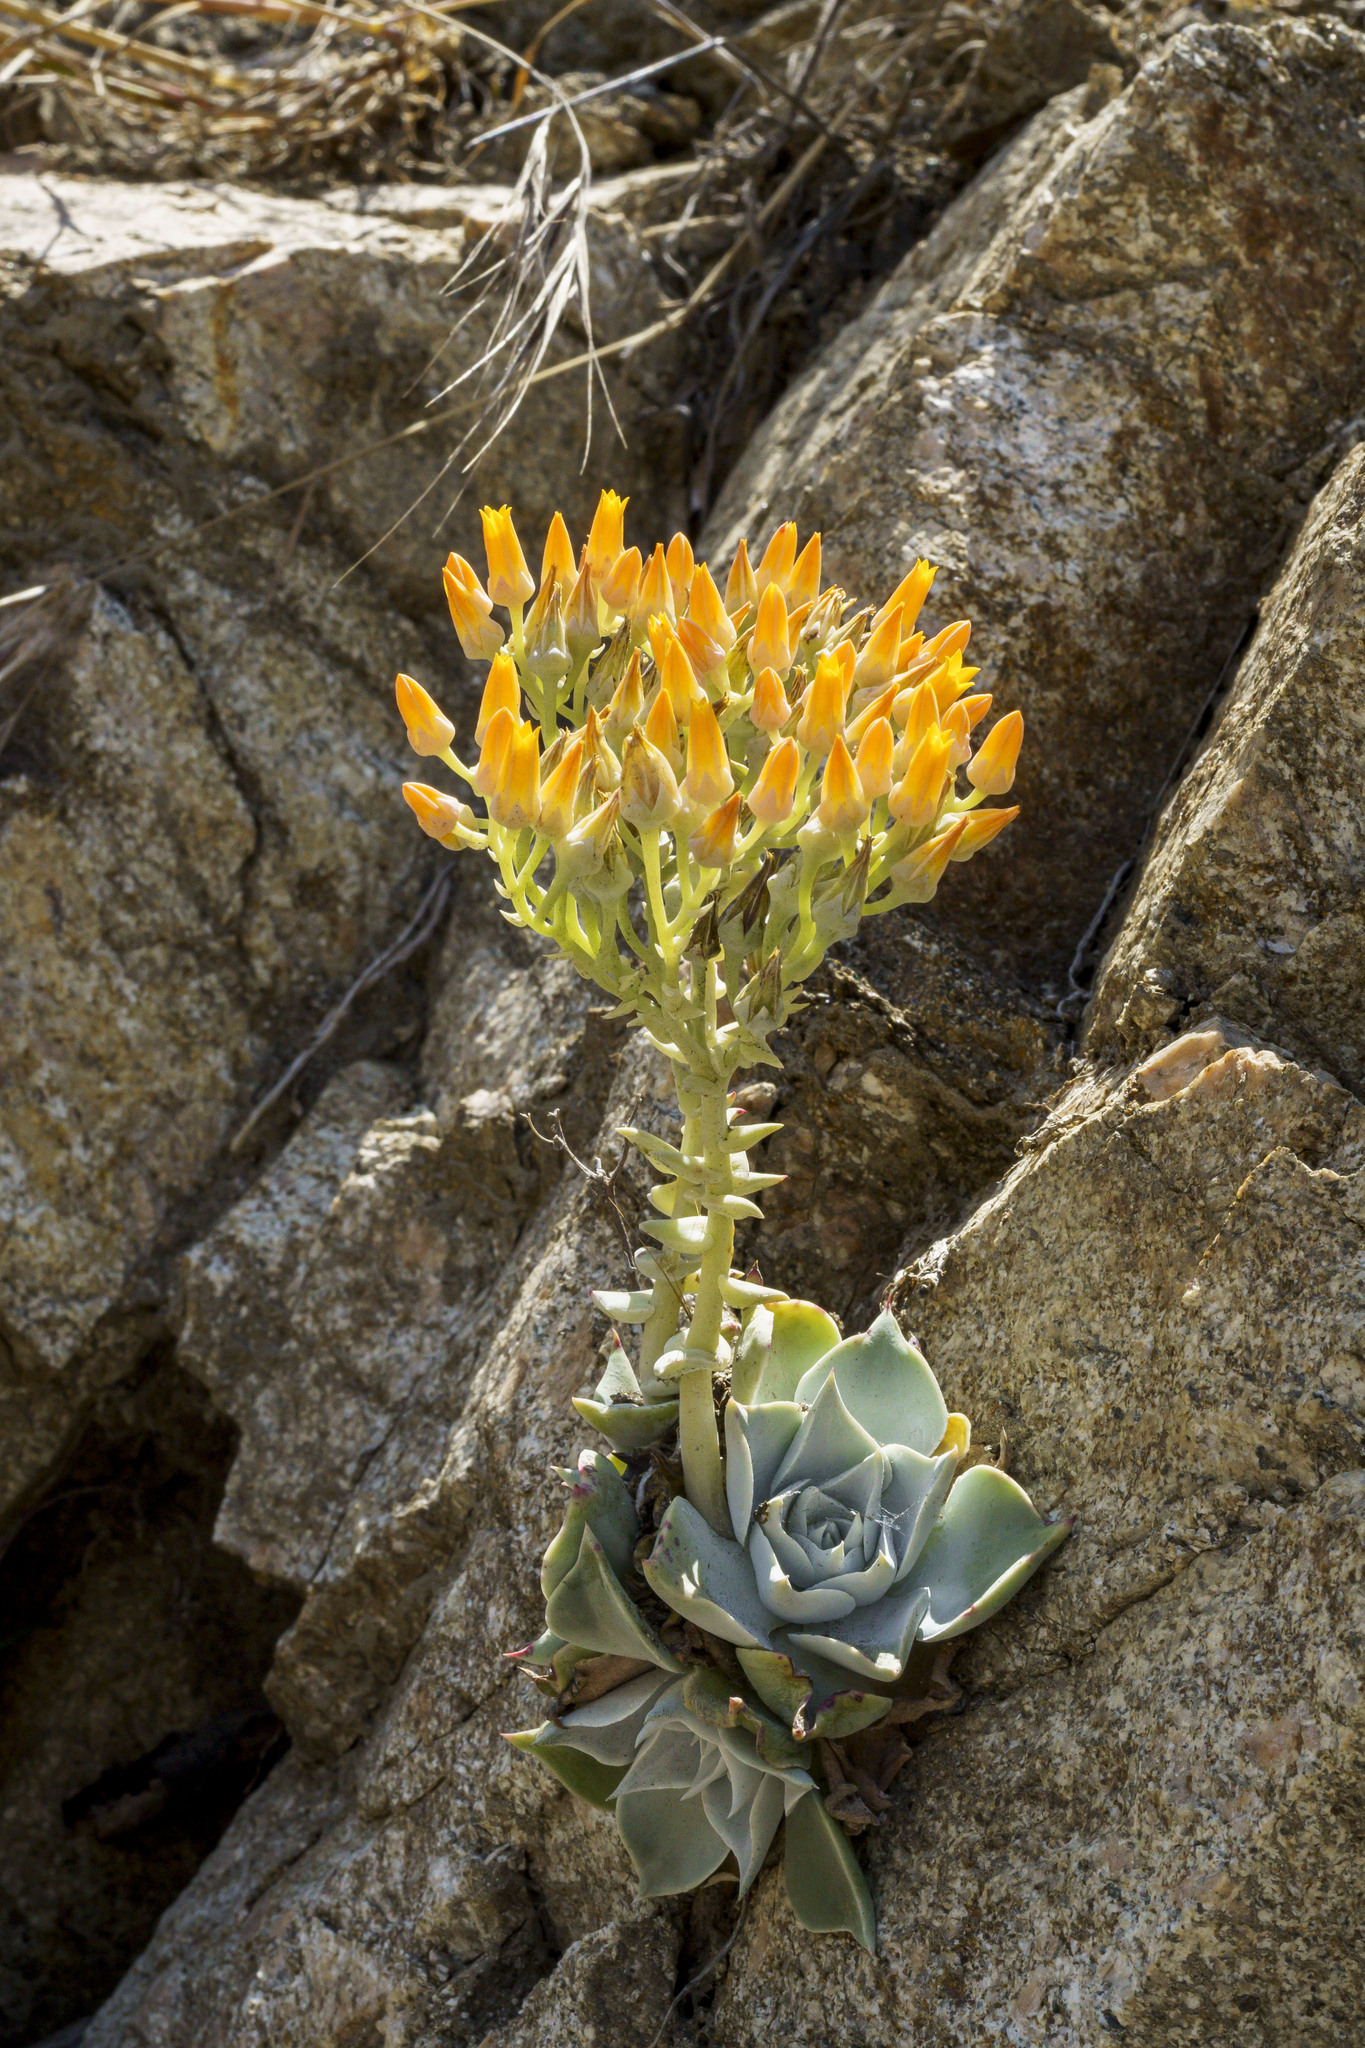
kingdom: Plantae
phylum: Tracheophyta
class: Magnoliopsida
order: Saxifragales
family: Crassulaceae
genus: Dudleya
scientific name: Dudleya cymosa
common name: Canyon dudleya
